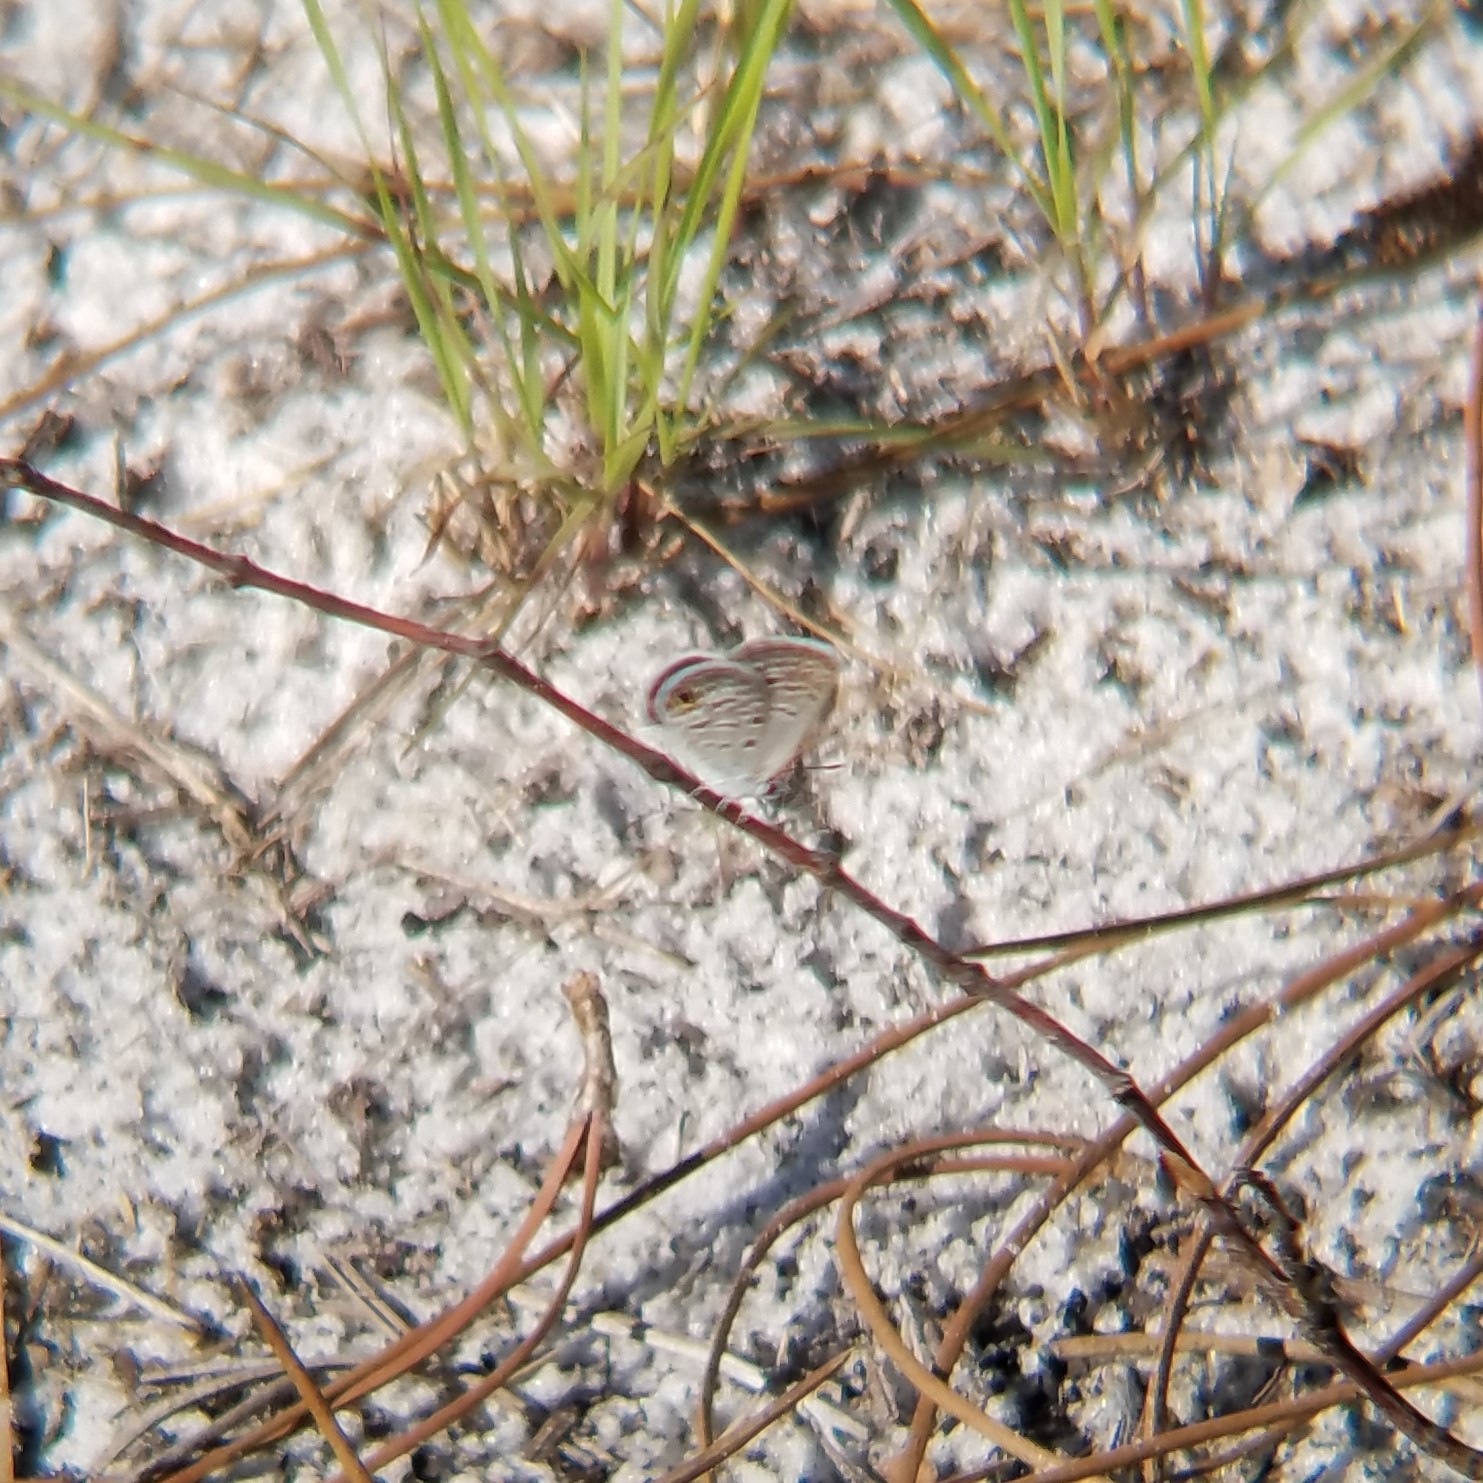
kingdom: Animalia
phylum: Arthropoda
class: Insecta
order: Lepidoptera
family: Lycaenidae
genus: Hemiargus
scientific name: Hemiargus ceraunus
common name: Ceraunus blue
